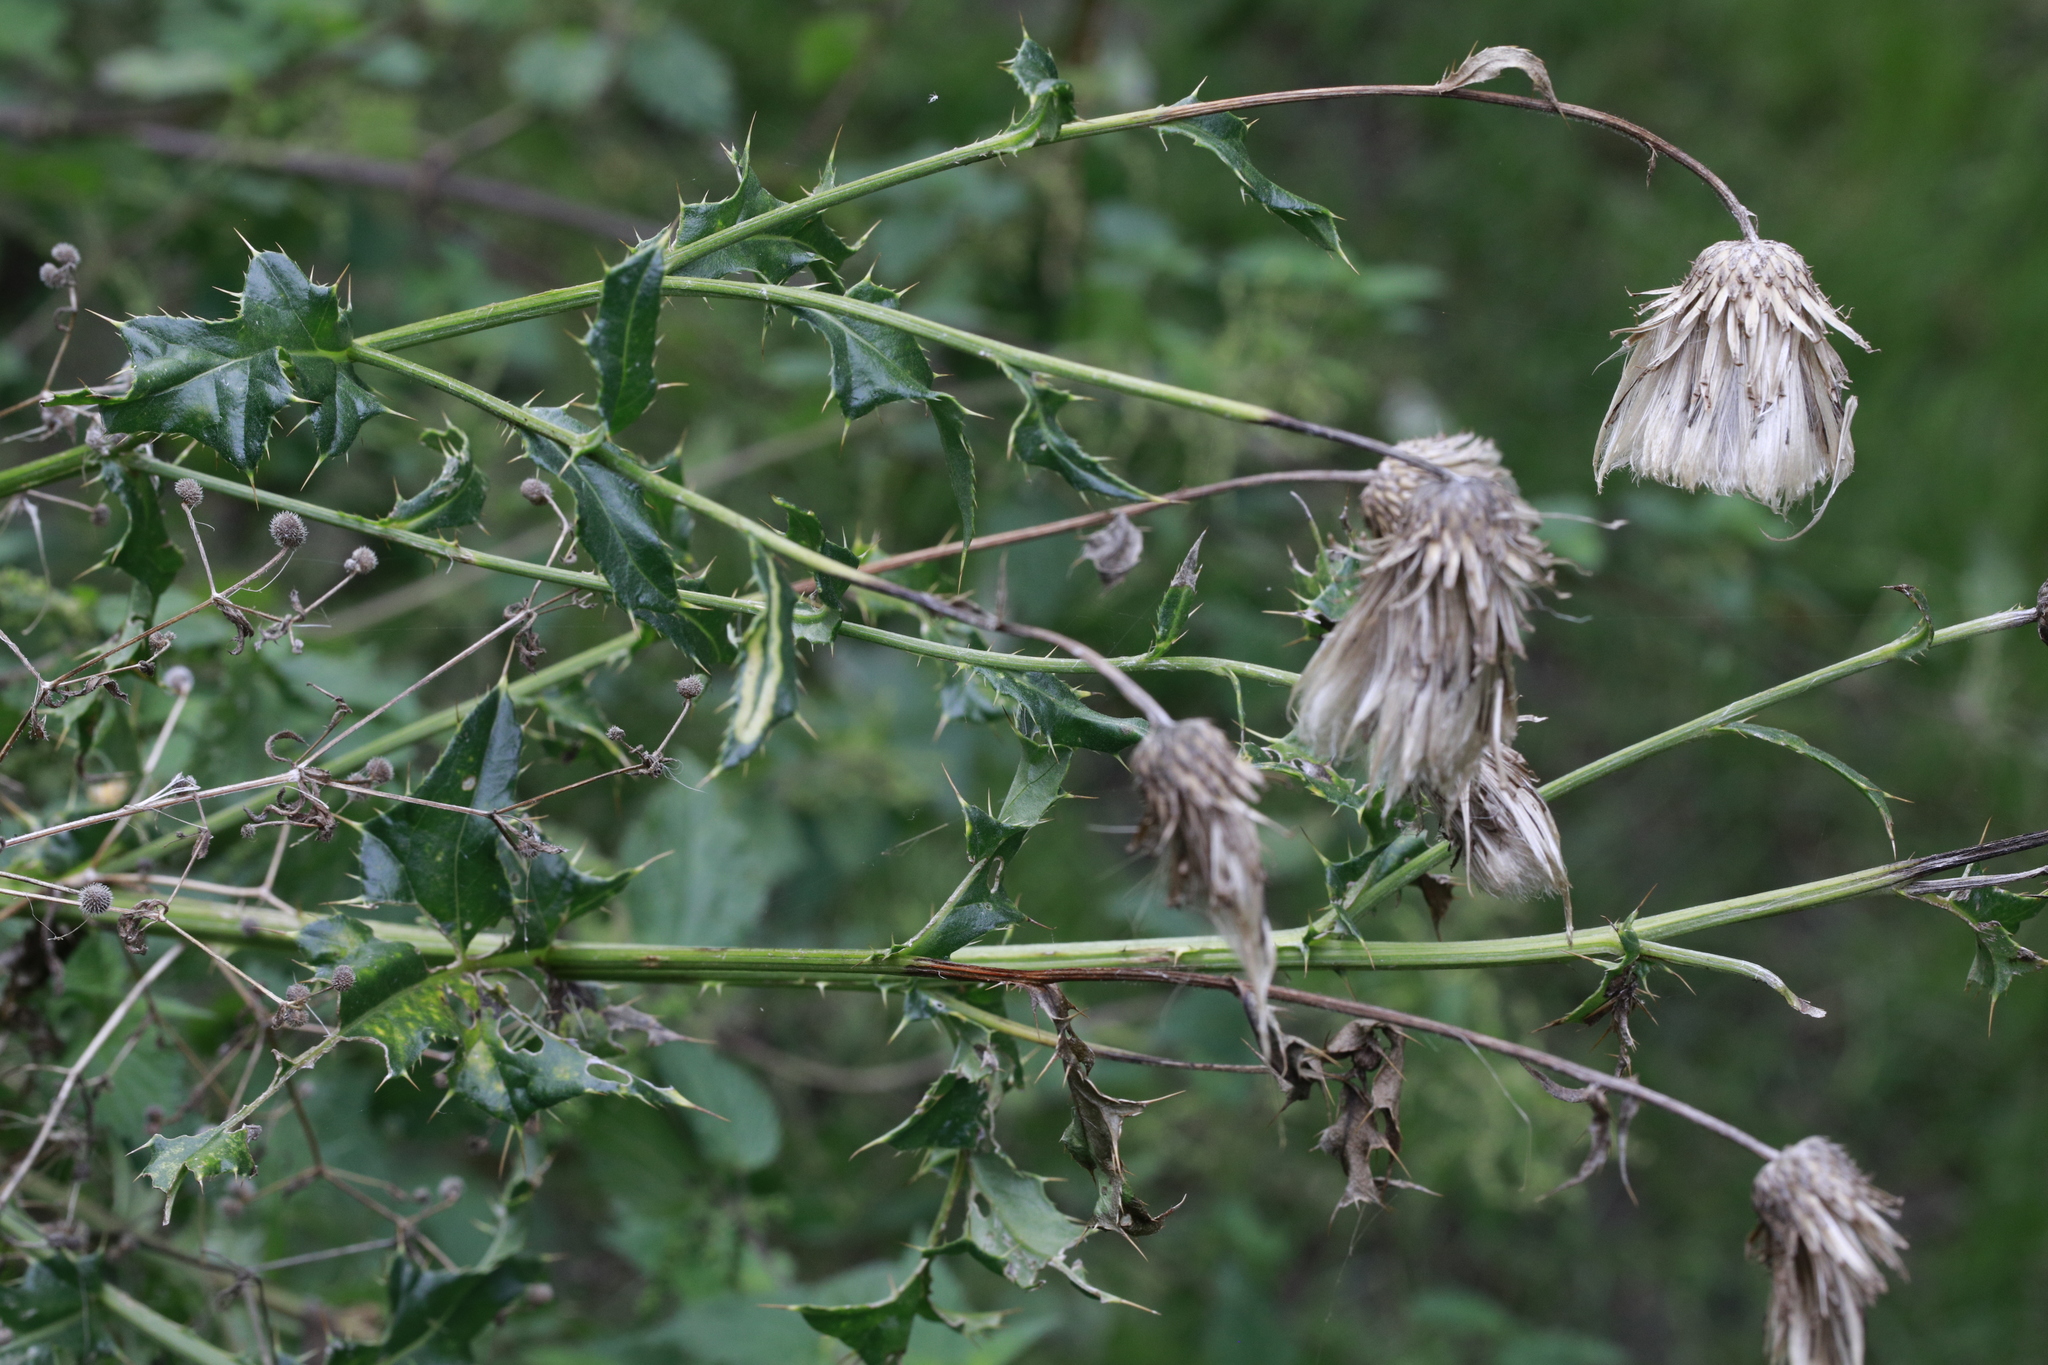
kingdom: Plantae
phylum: Tracheophyta
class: Magnoliopsida
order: Asterales
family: Asteraceae
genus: Cirsium
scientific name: Cirsium arvense
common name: Creeping thistle
